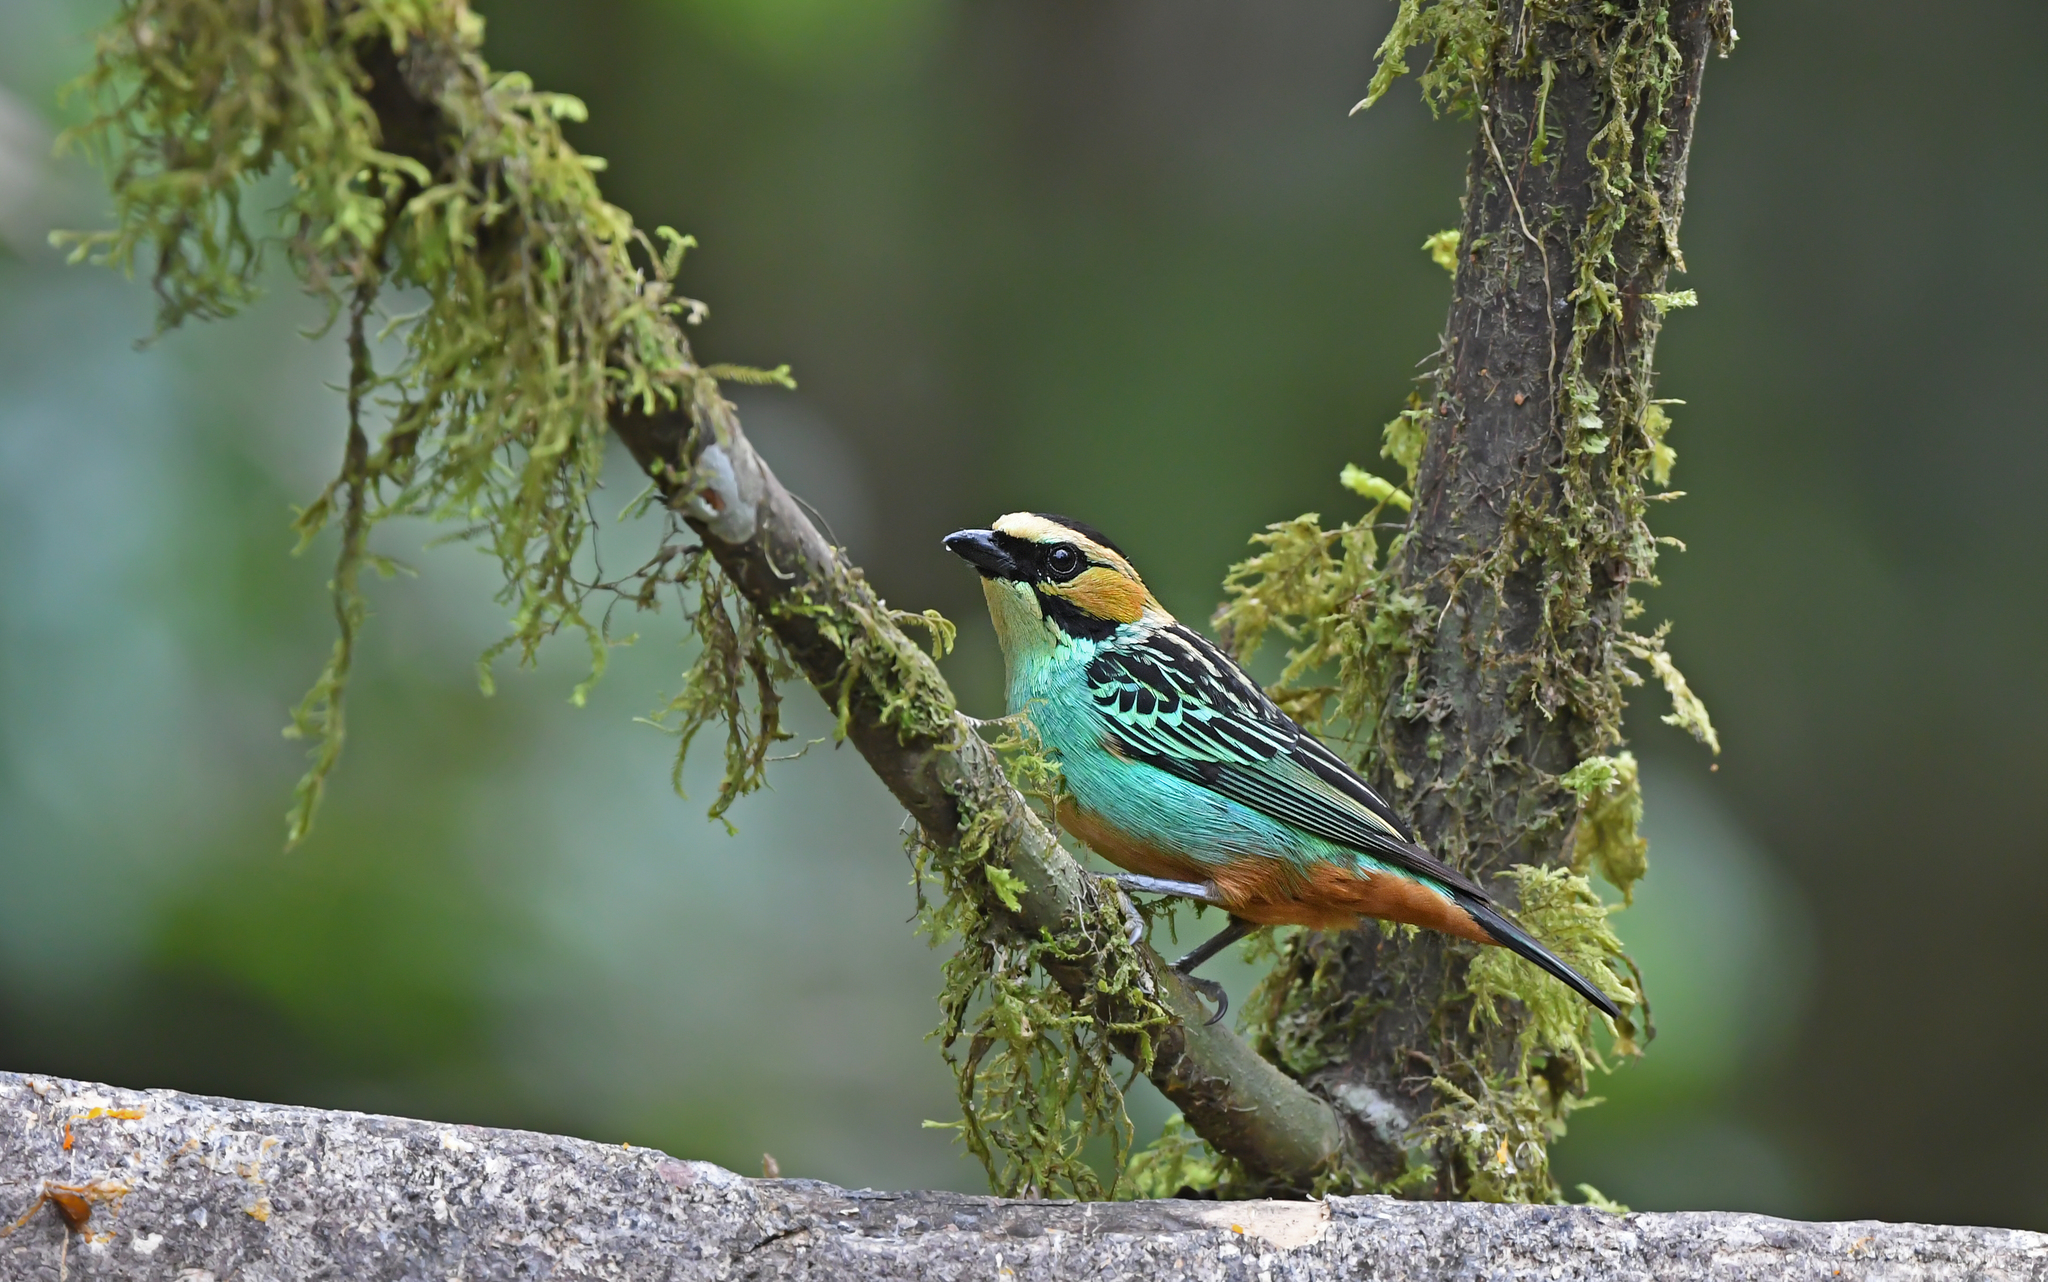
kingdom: Animalia
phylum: Chordata
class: Aves
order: Passeriformes
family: Thraupidae
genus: Tangara
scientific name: Tangara chrysotis
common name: Golden-eared tanager
